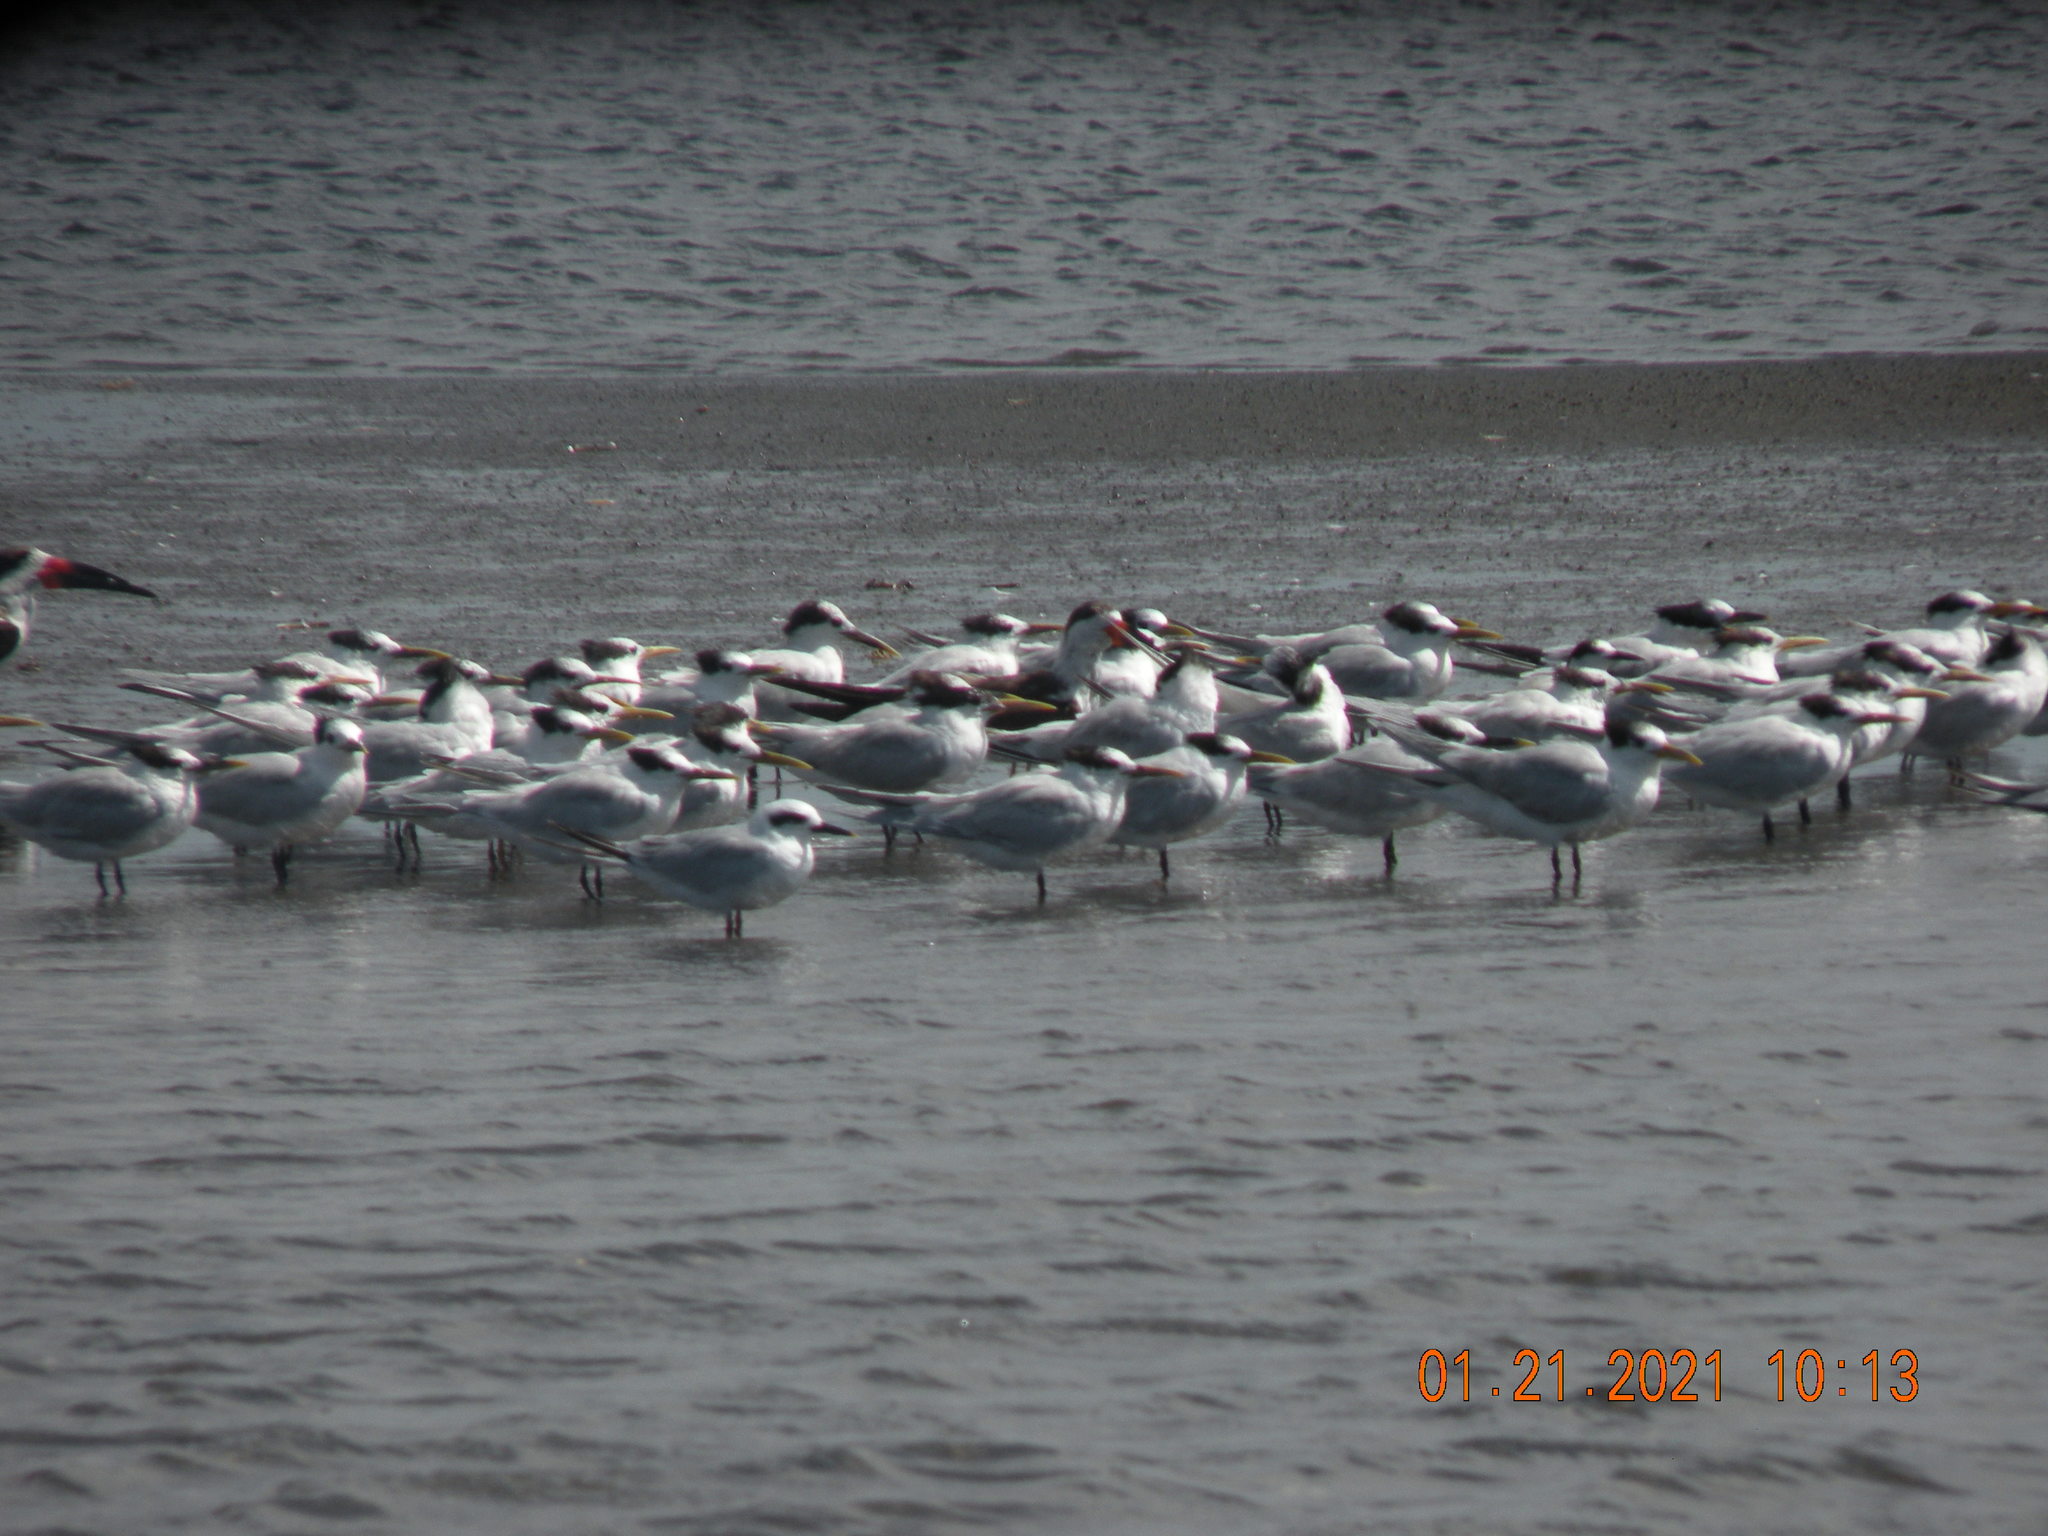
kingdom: Animalia
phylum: Chordata
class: Aves
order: Charadriiformes
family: Laridae
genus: Thalasseus
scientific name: Thalasseus acuflavidus
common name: Cabot's tern
